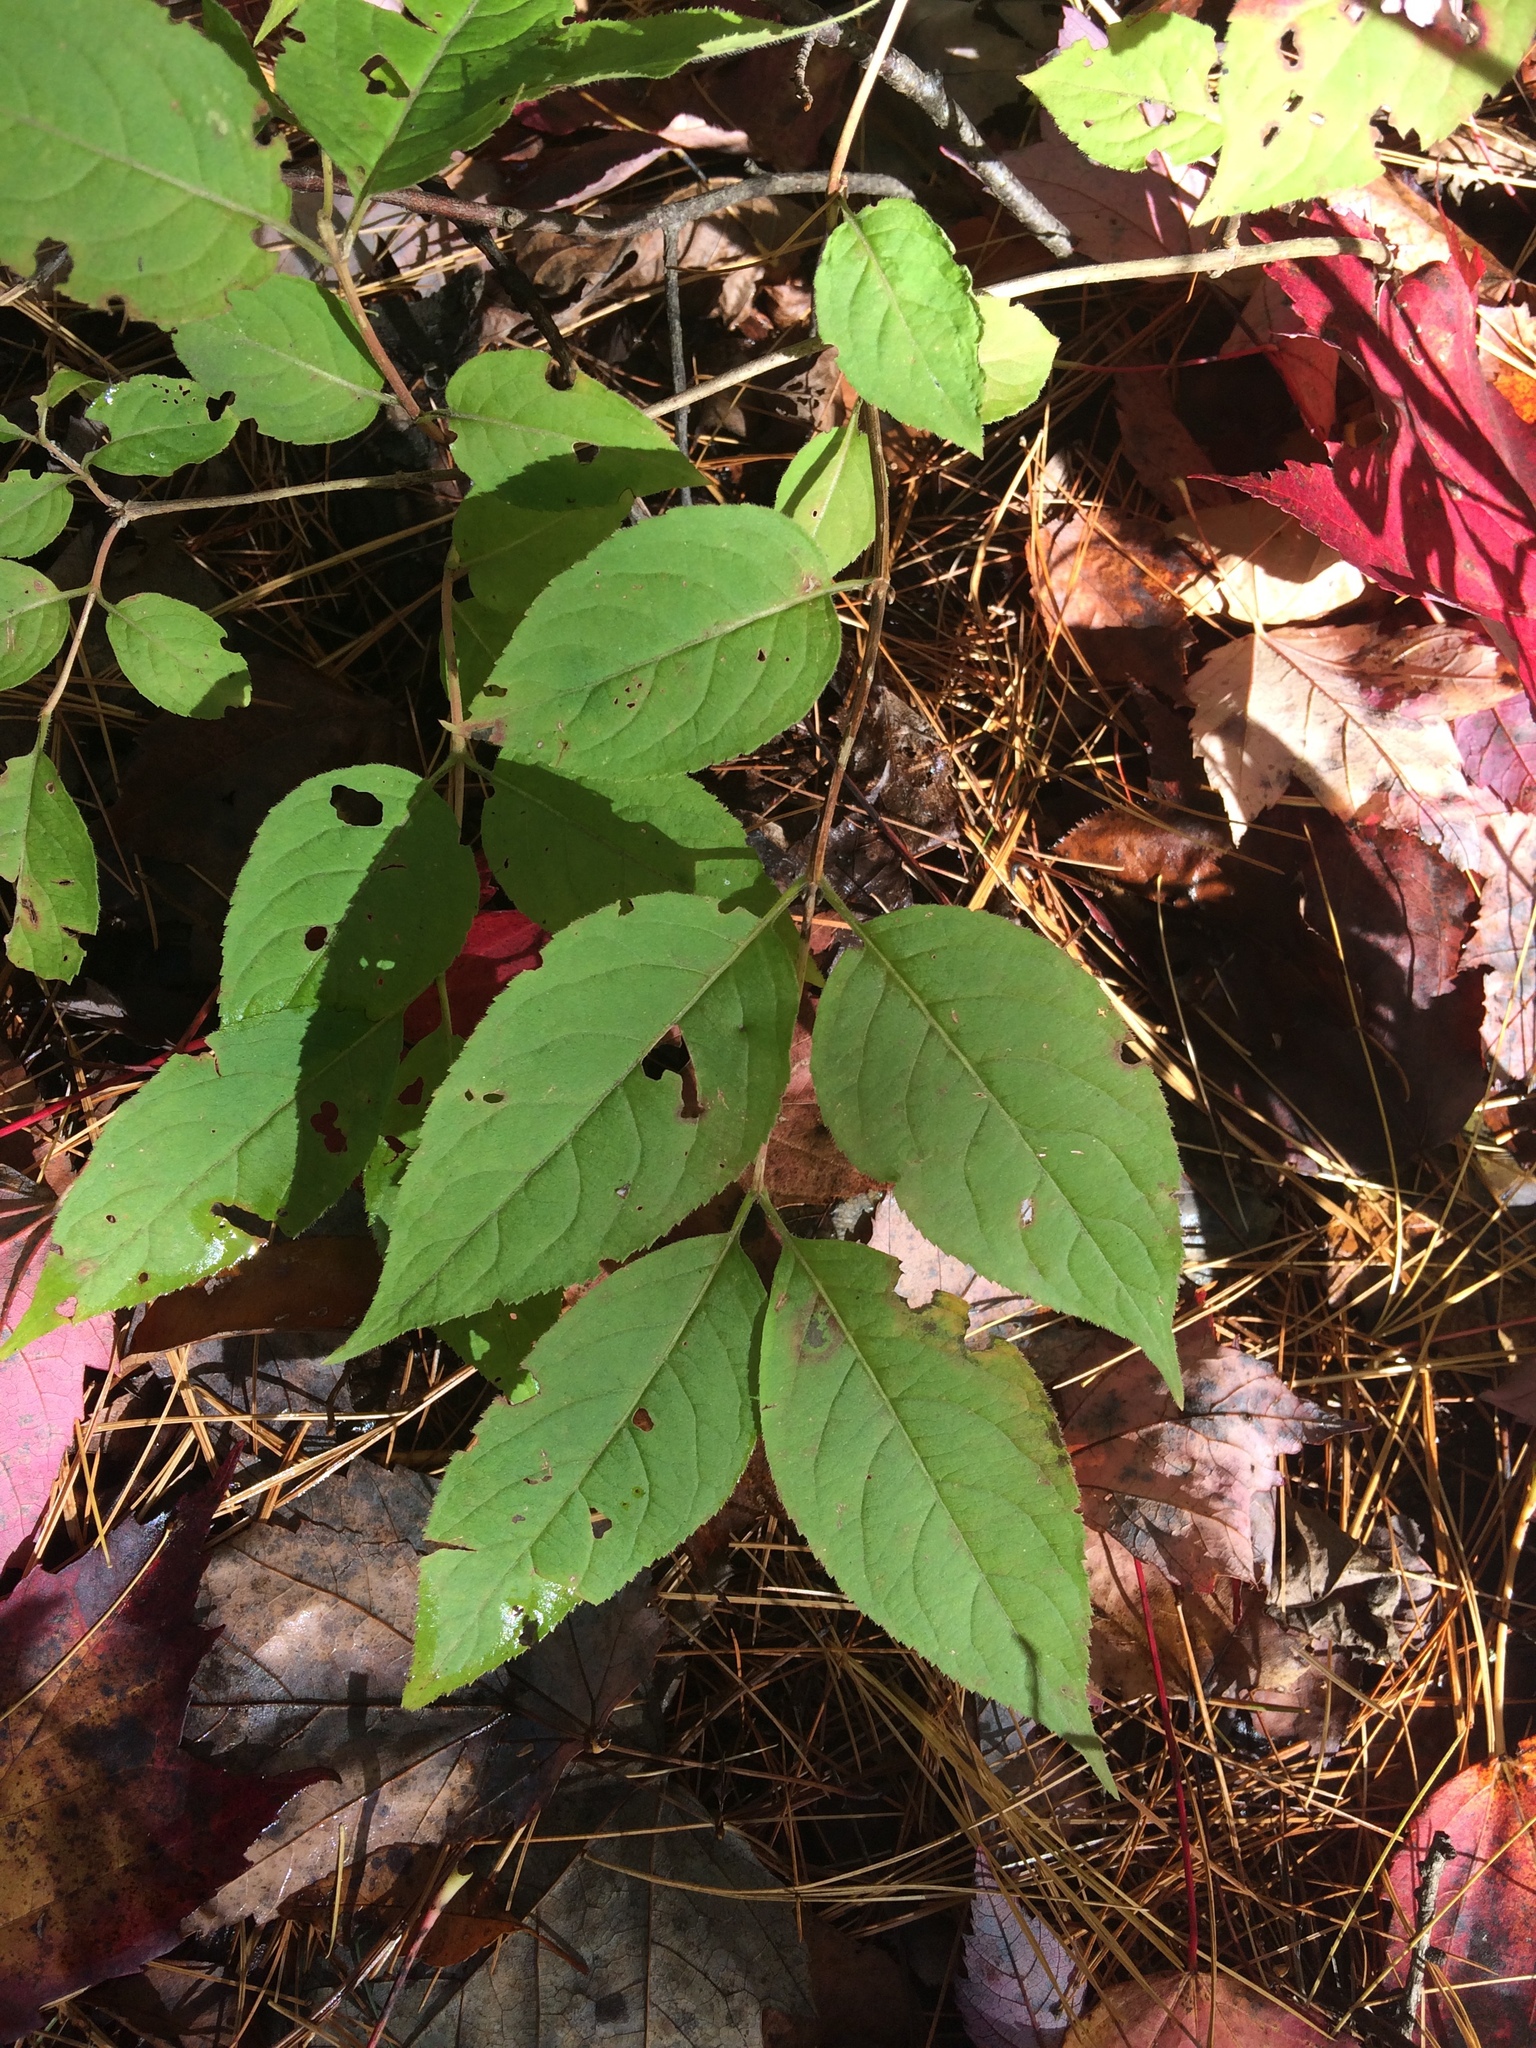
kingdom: Plantae
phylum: Tracheophyta
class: Magnoliopsida
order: Dipsacales
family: Caprifoliaceae
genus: Diervilla
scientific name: Diervilla lonicera
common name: Bush-honeysuckle
